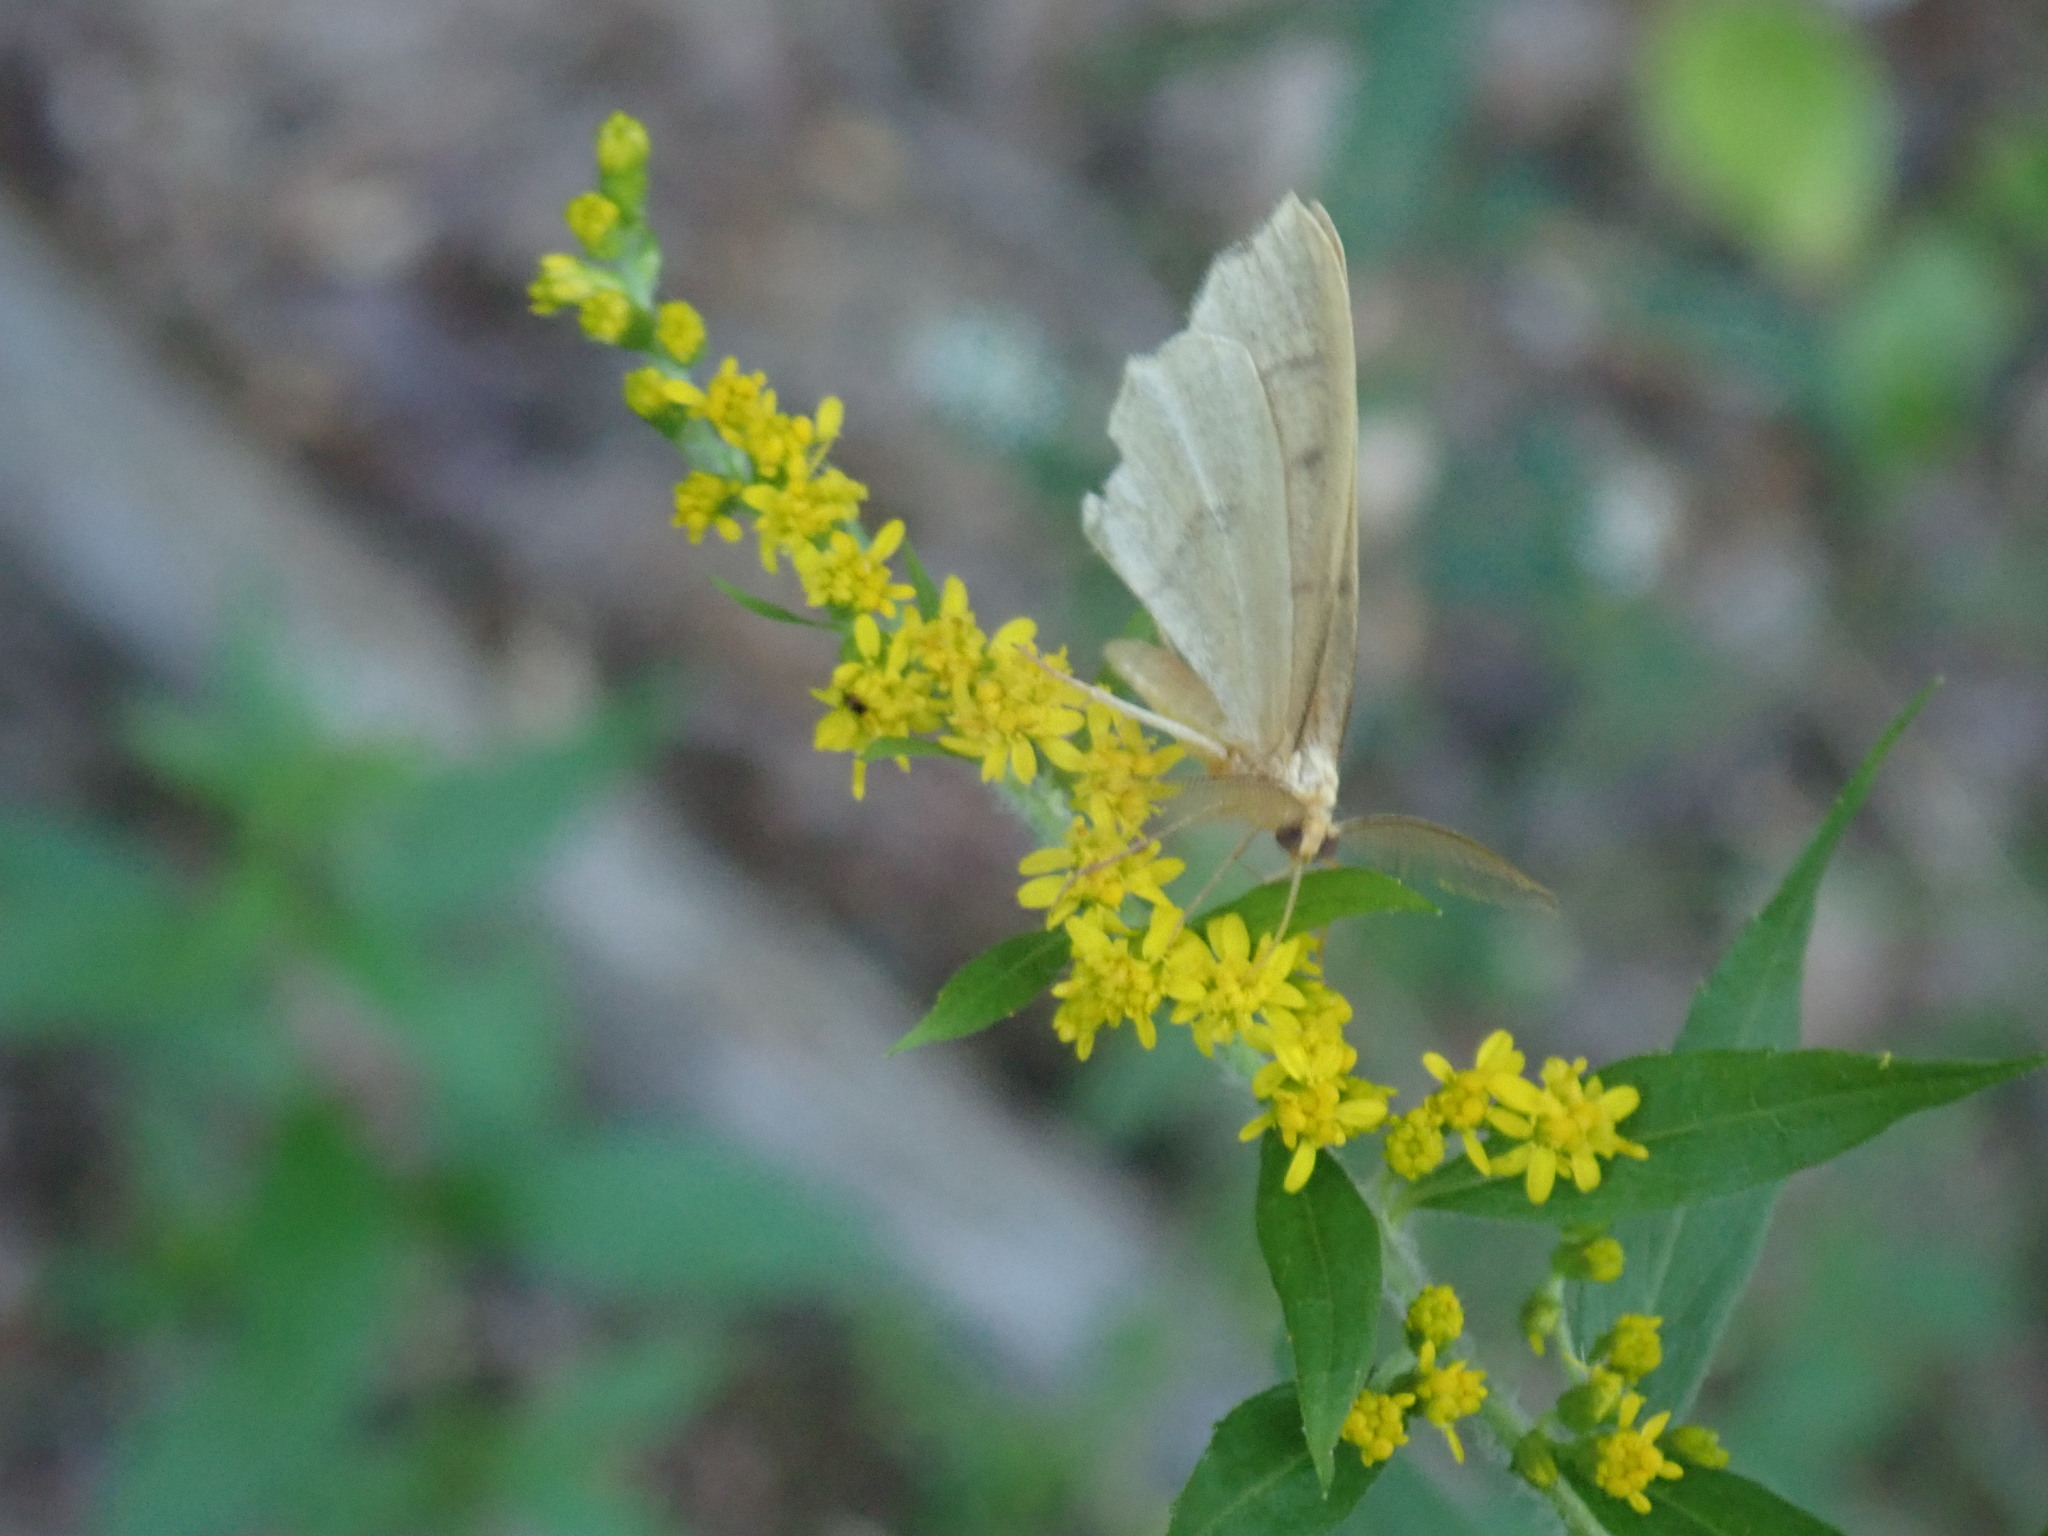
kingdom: Animalia
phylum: Arthropoda
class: Insecta
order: Lepidoptera
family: Geometridae
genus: Lambdina
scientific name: Lambdina fiscellaria
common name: Hemlock looper
